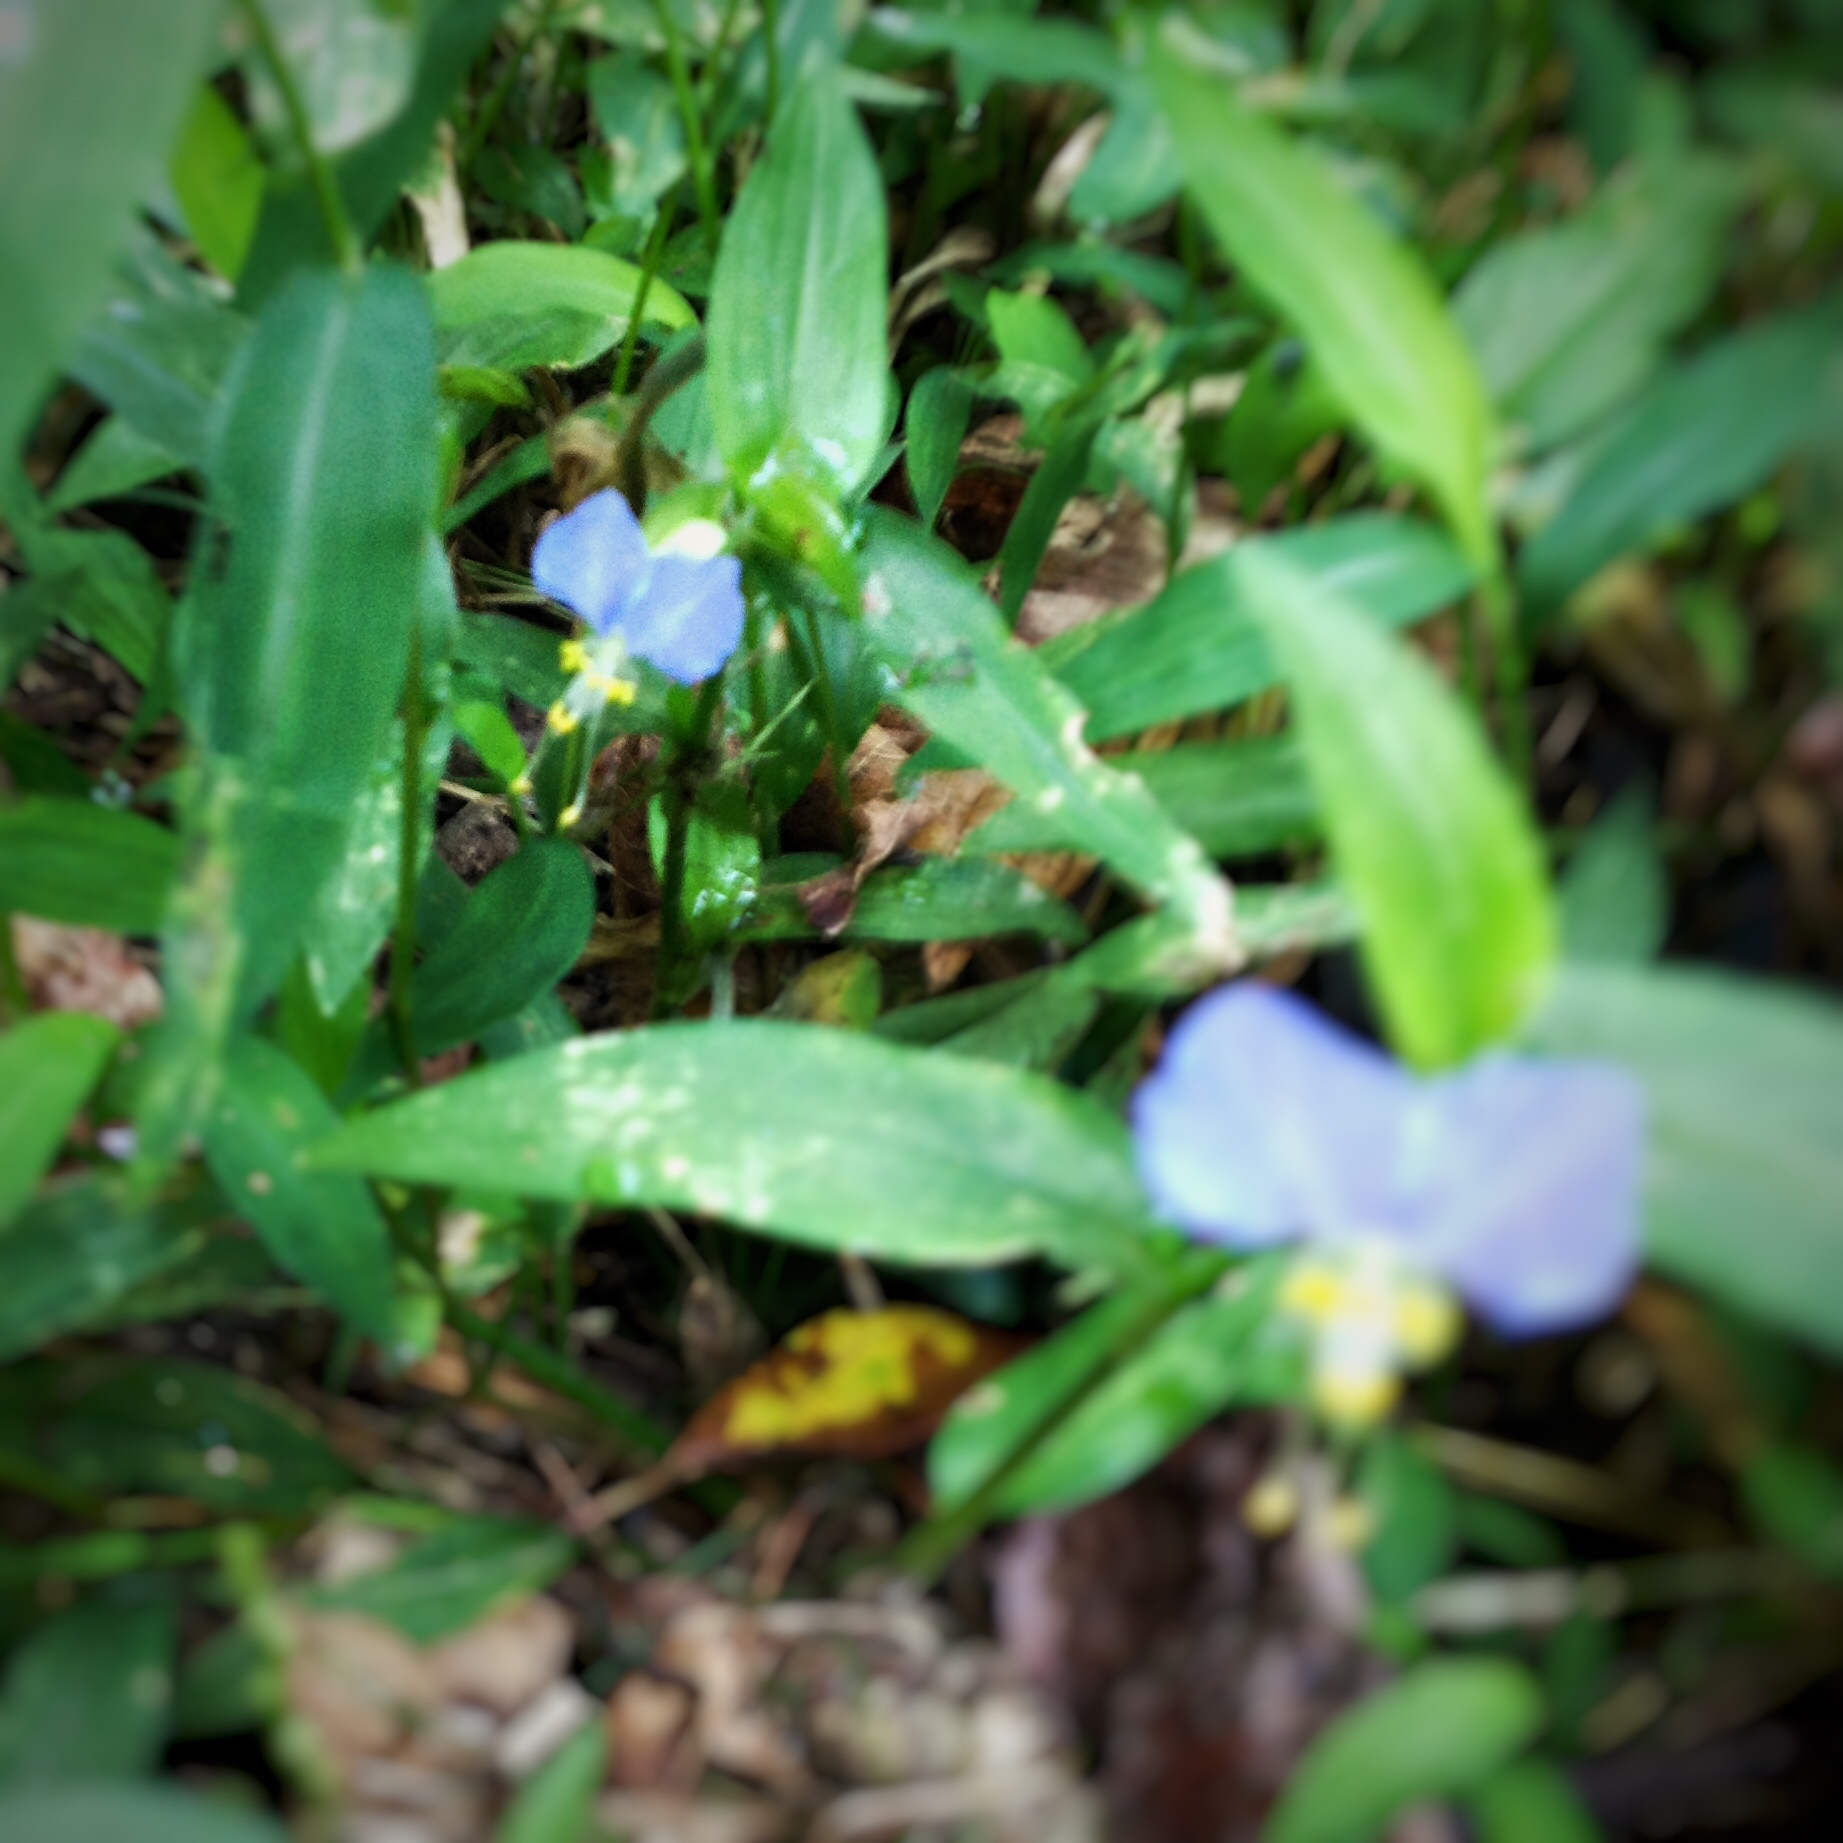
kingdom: Plantae
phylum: Tracheophyta
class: Liliopsida
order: Commelinales
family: Commelinaceae
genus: Commelina
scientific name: Commelina communis
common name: Asiatic dayflower
